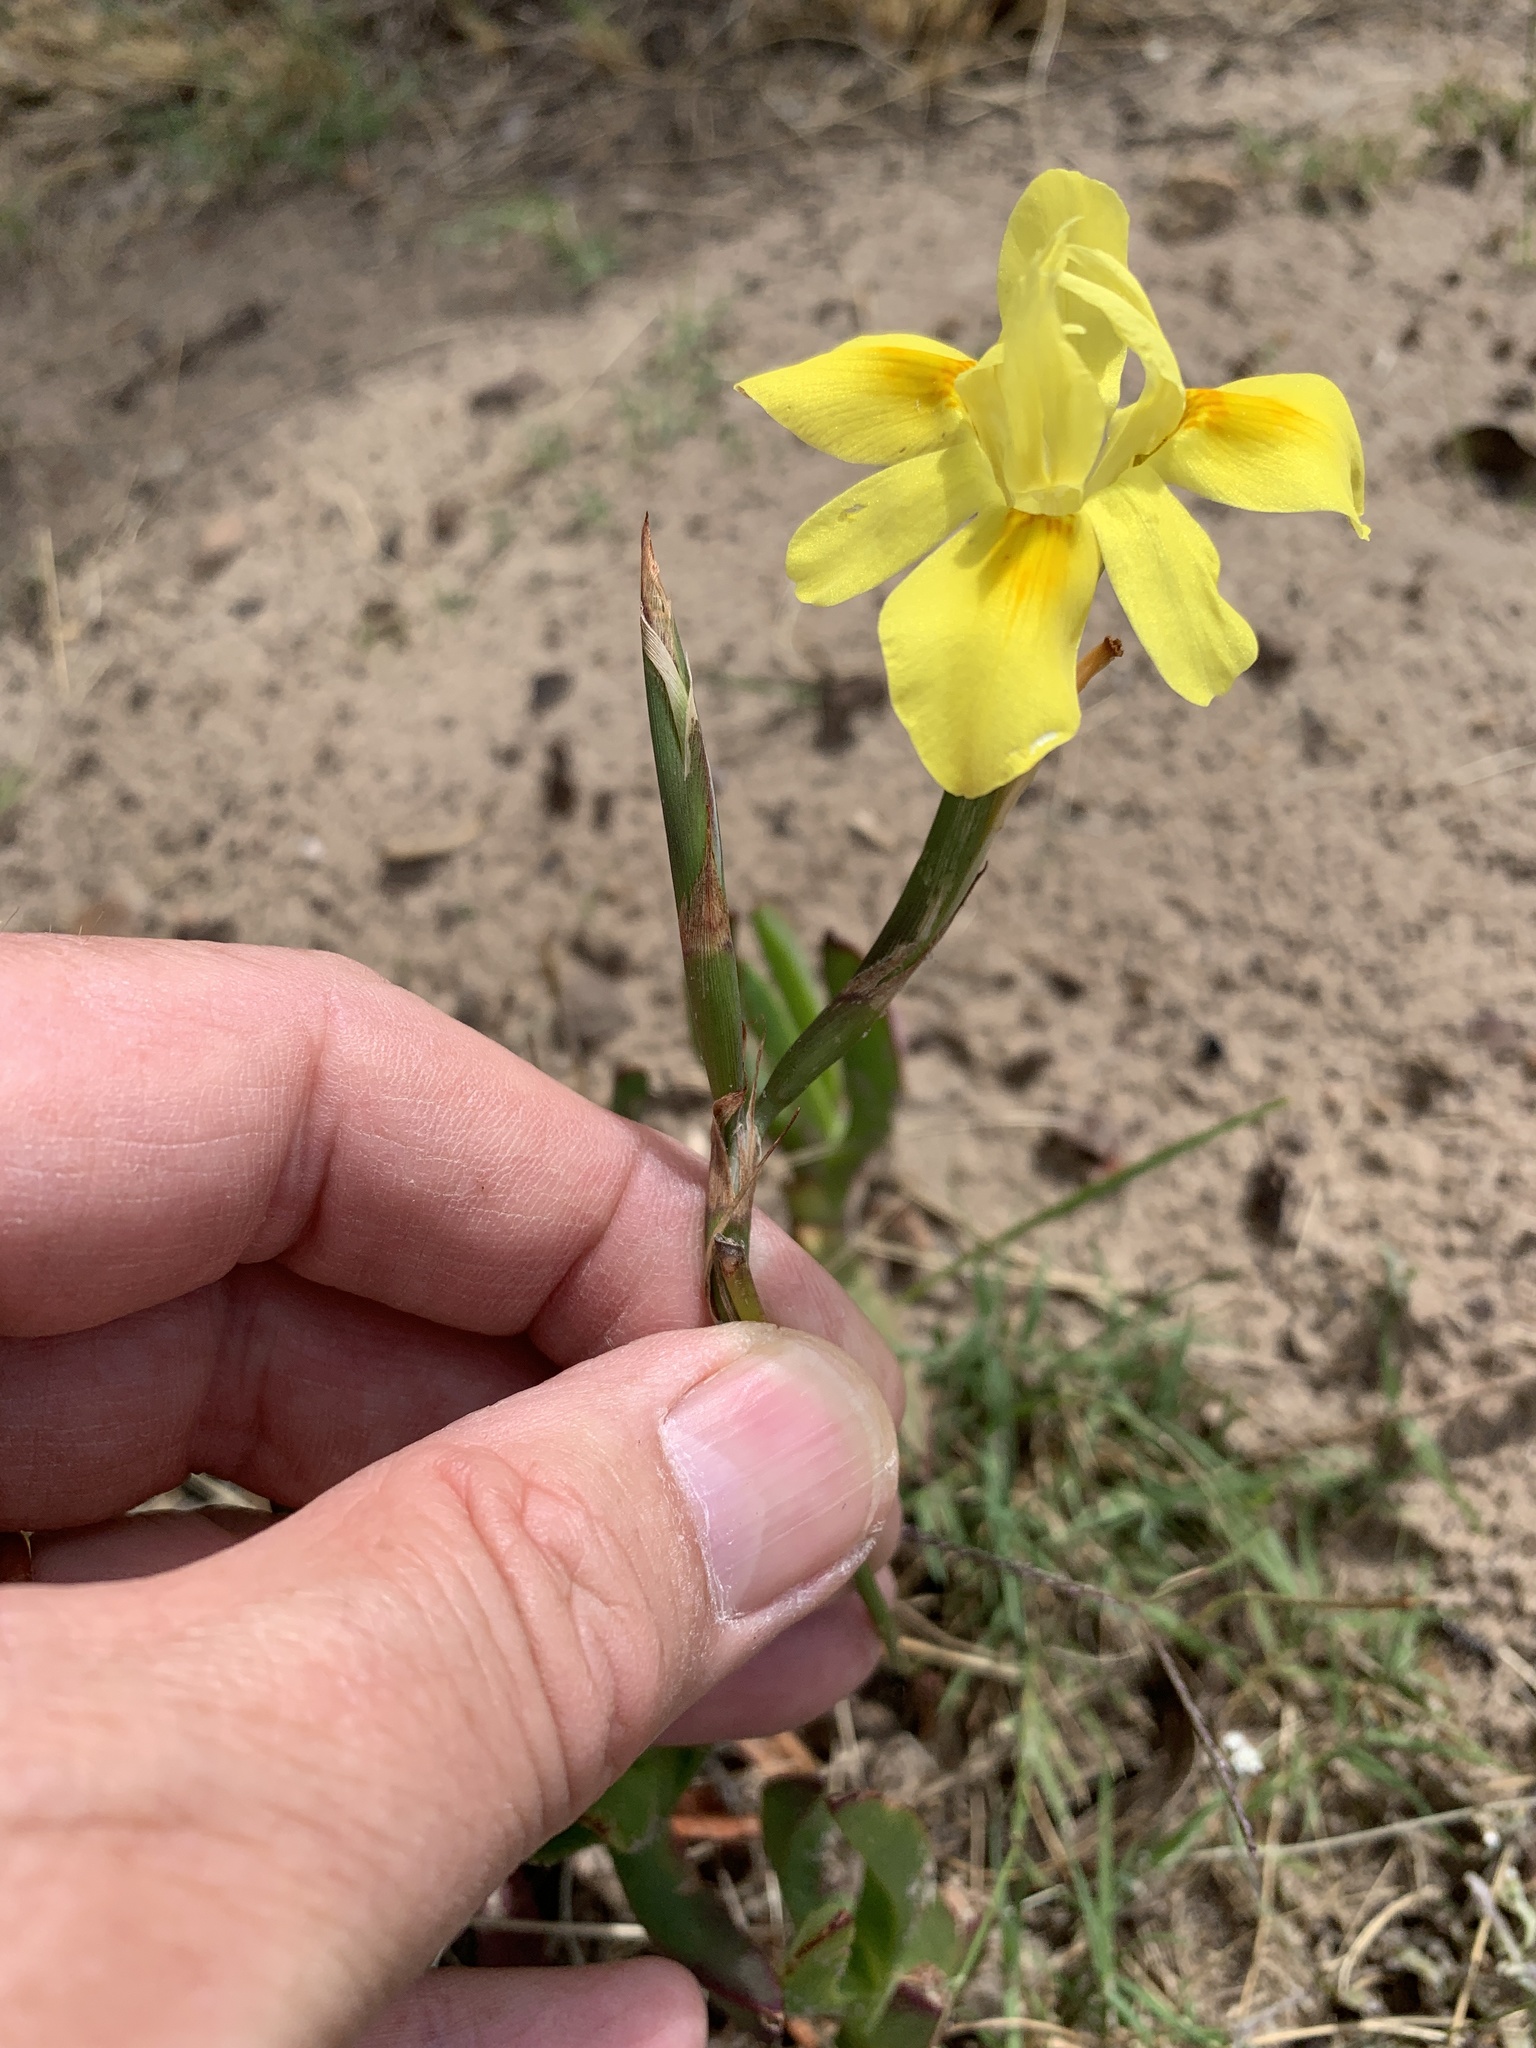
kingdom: Plantae
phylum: Tracheophyta
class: Liliopsida
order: Asparagales
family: Iridaceae
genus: Moraea
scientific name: Moraea fugax
